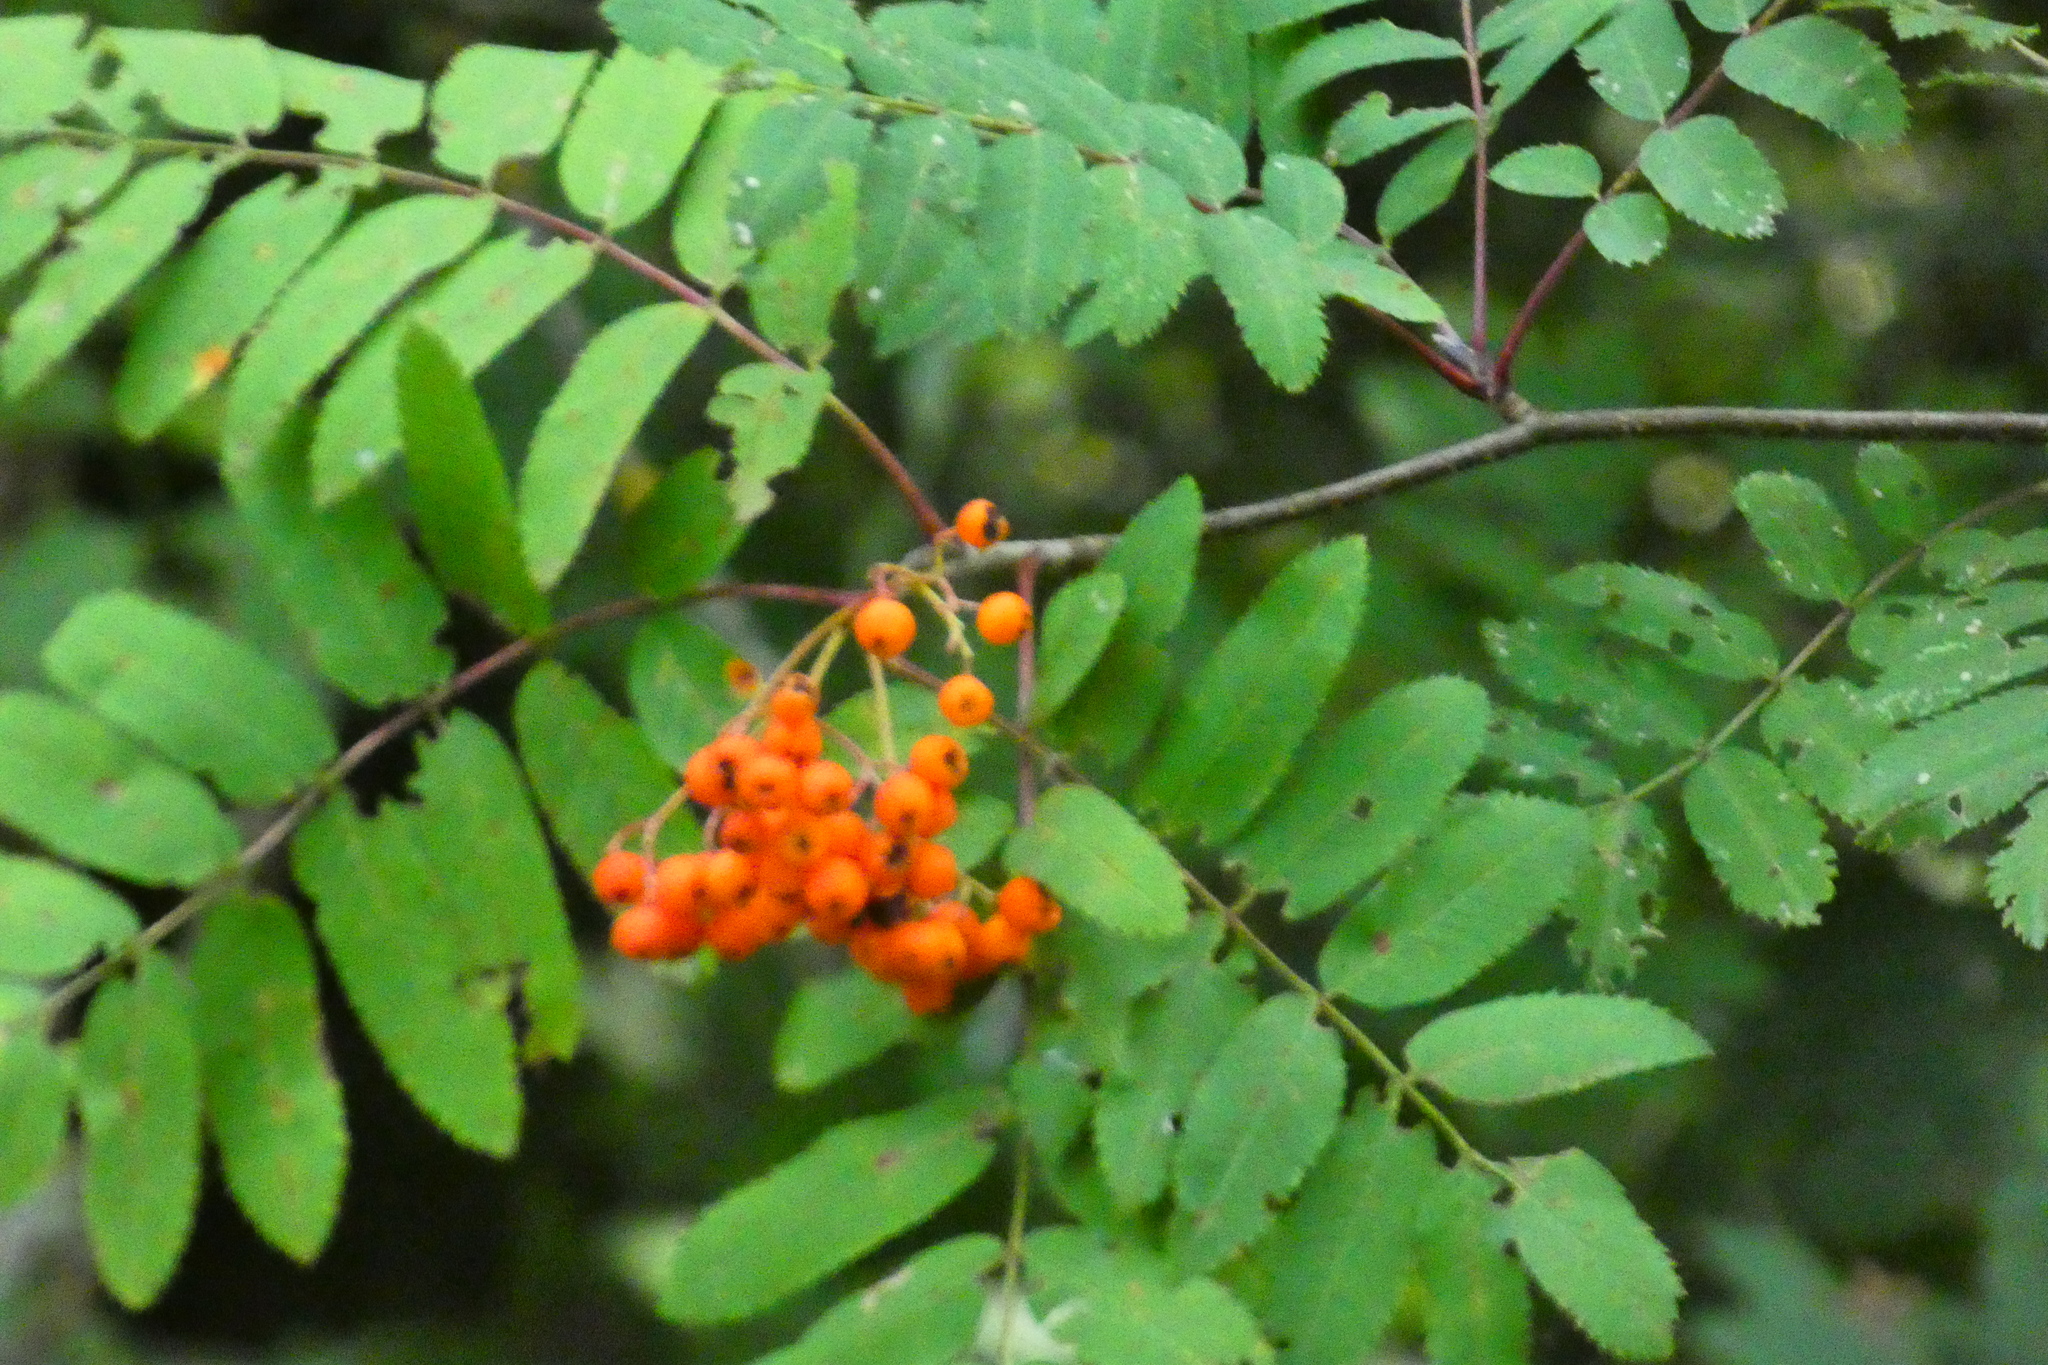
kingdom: Plantae
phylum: Tracheophyta
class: Magnoliopsida
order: Rosales
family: Rosaceae
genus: Sorbus
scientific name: Sorbus aucuparia
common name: Rowan
